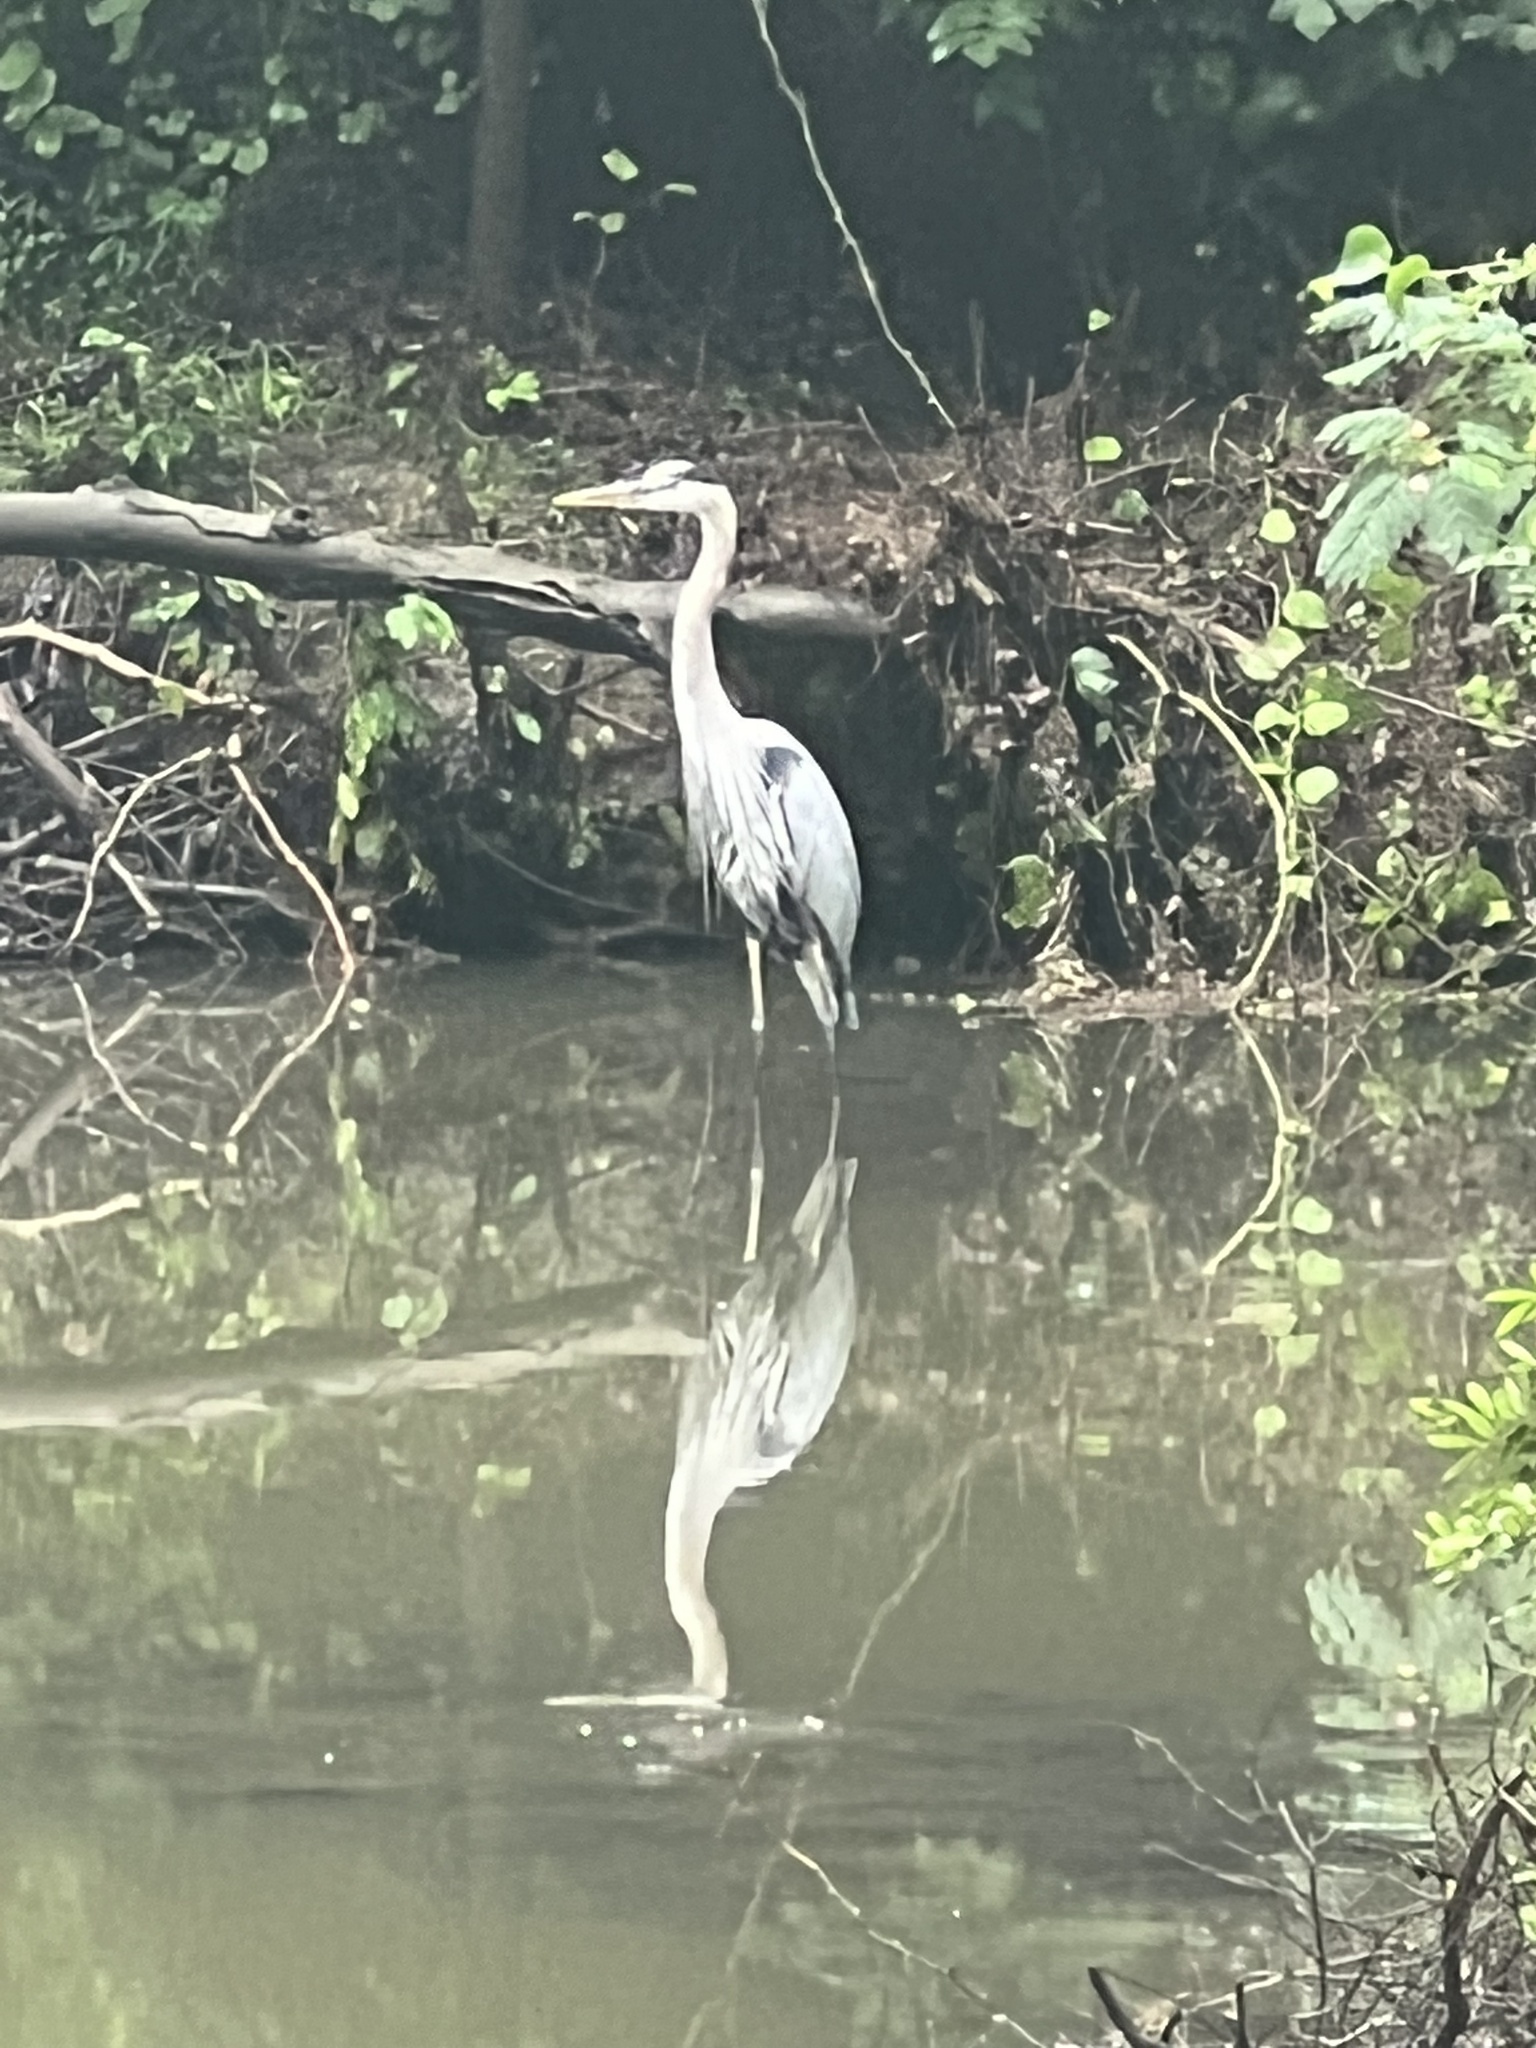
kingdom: Animalia
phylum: Chordata
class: Aves
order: Pelecaniformes
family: Ardeidae
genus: Ardea
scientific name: Ardea herodias
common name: Great blue heron
